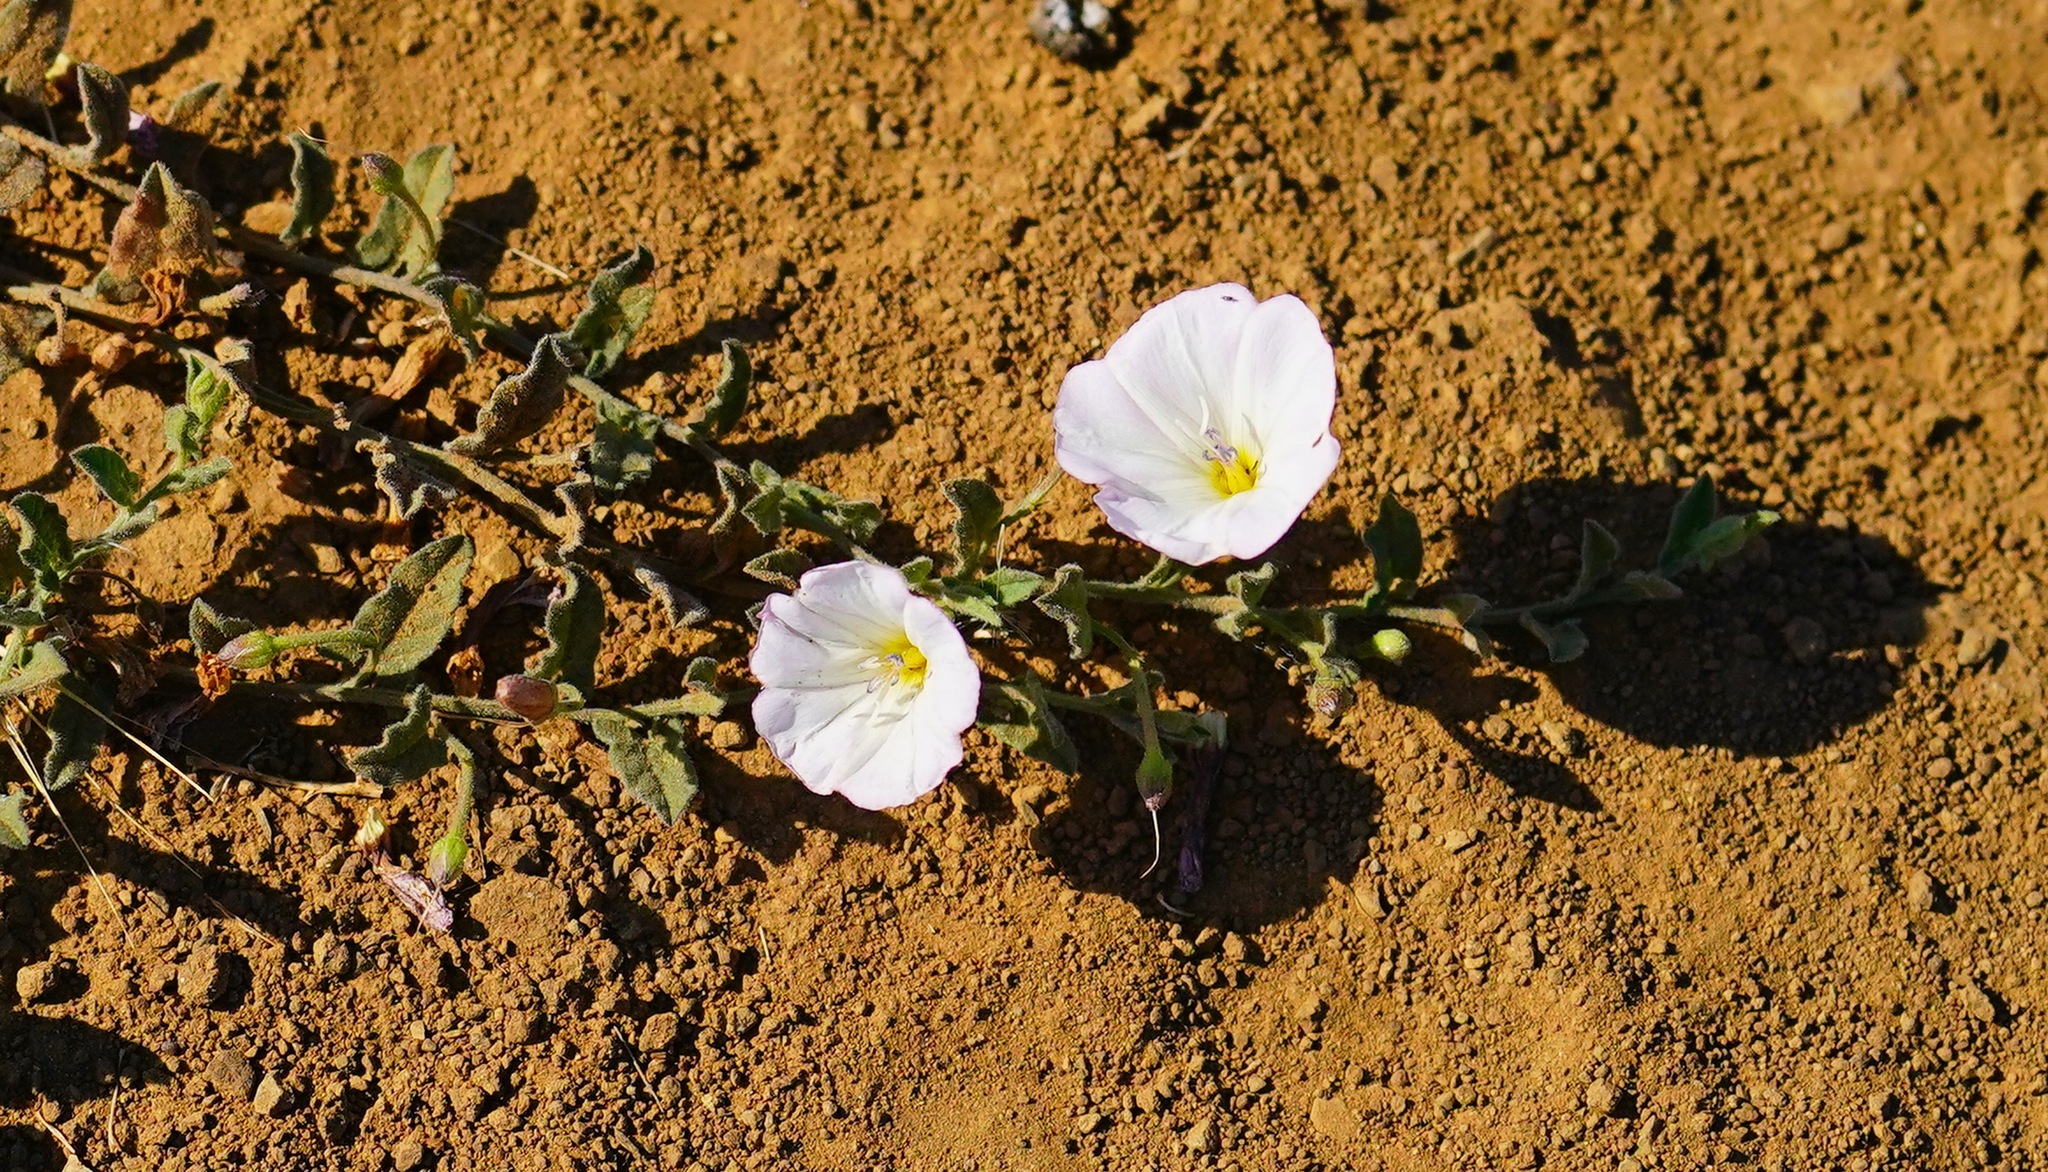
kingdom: Plantae
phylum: Tracheophyta
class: Magnoliopsida
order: Solanales
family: Convolvulaceae
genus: Convolvulus
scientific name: Convolvulus arvensis
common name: Field bindweed
